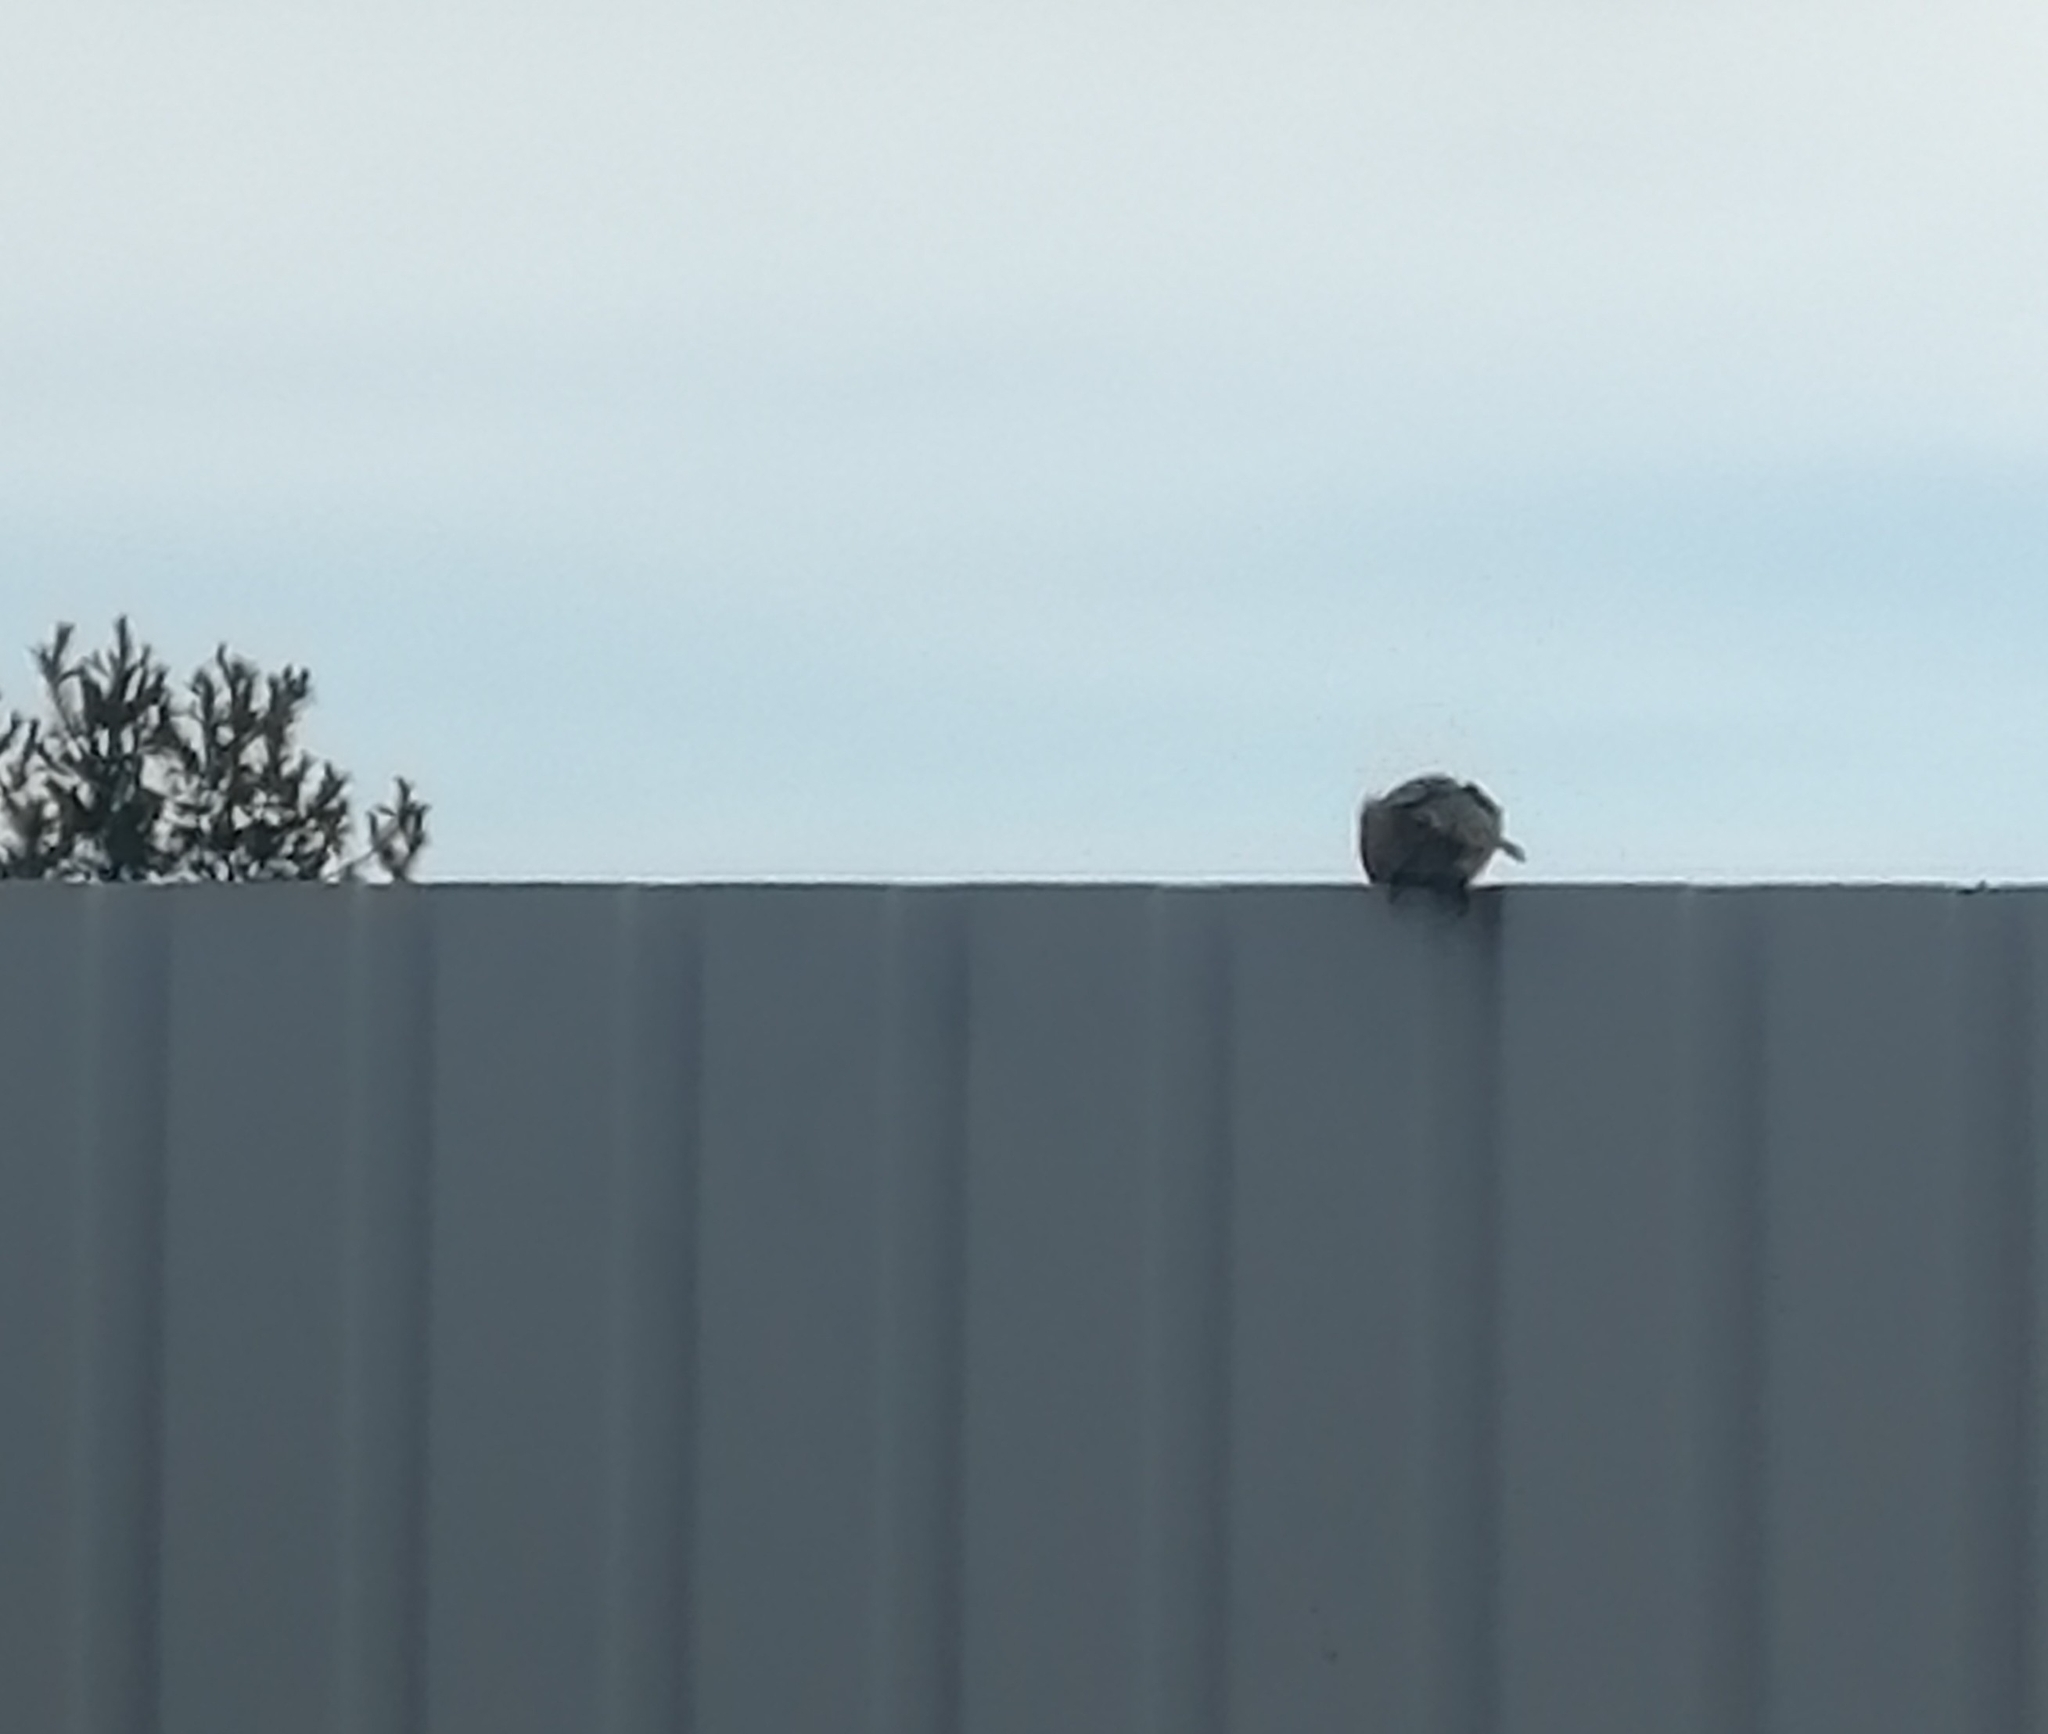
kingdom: Animalia
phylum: Chordata
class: Aves
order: Passeriformes
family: Passeridae
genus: Passer
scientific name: Passer domesticus
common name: House sparrow
